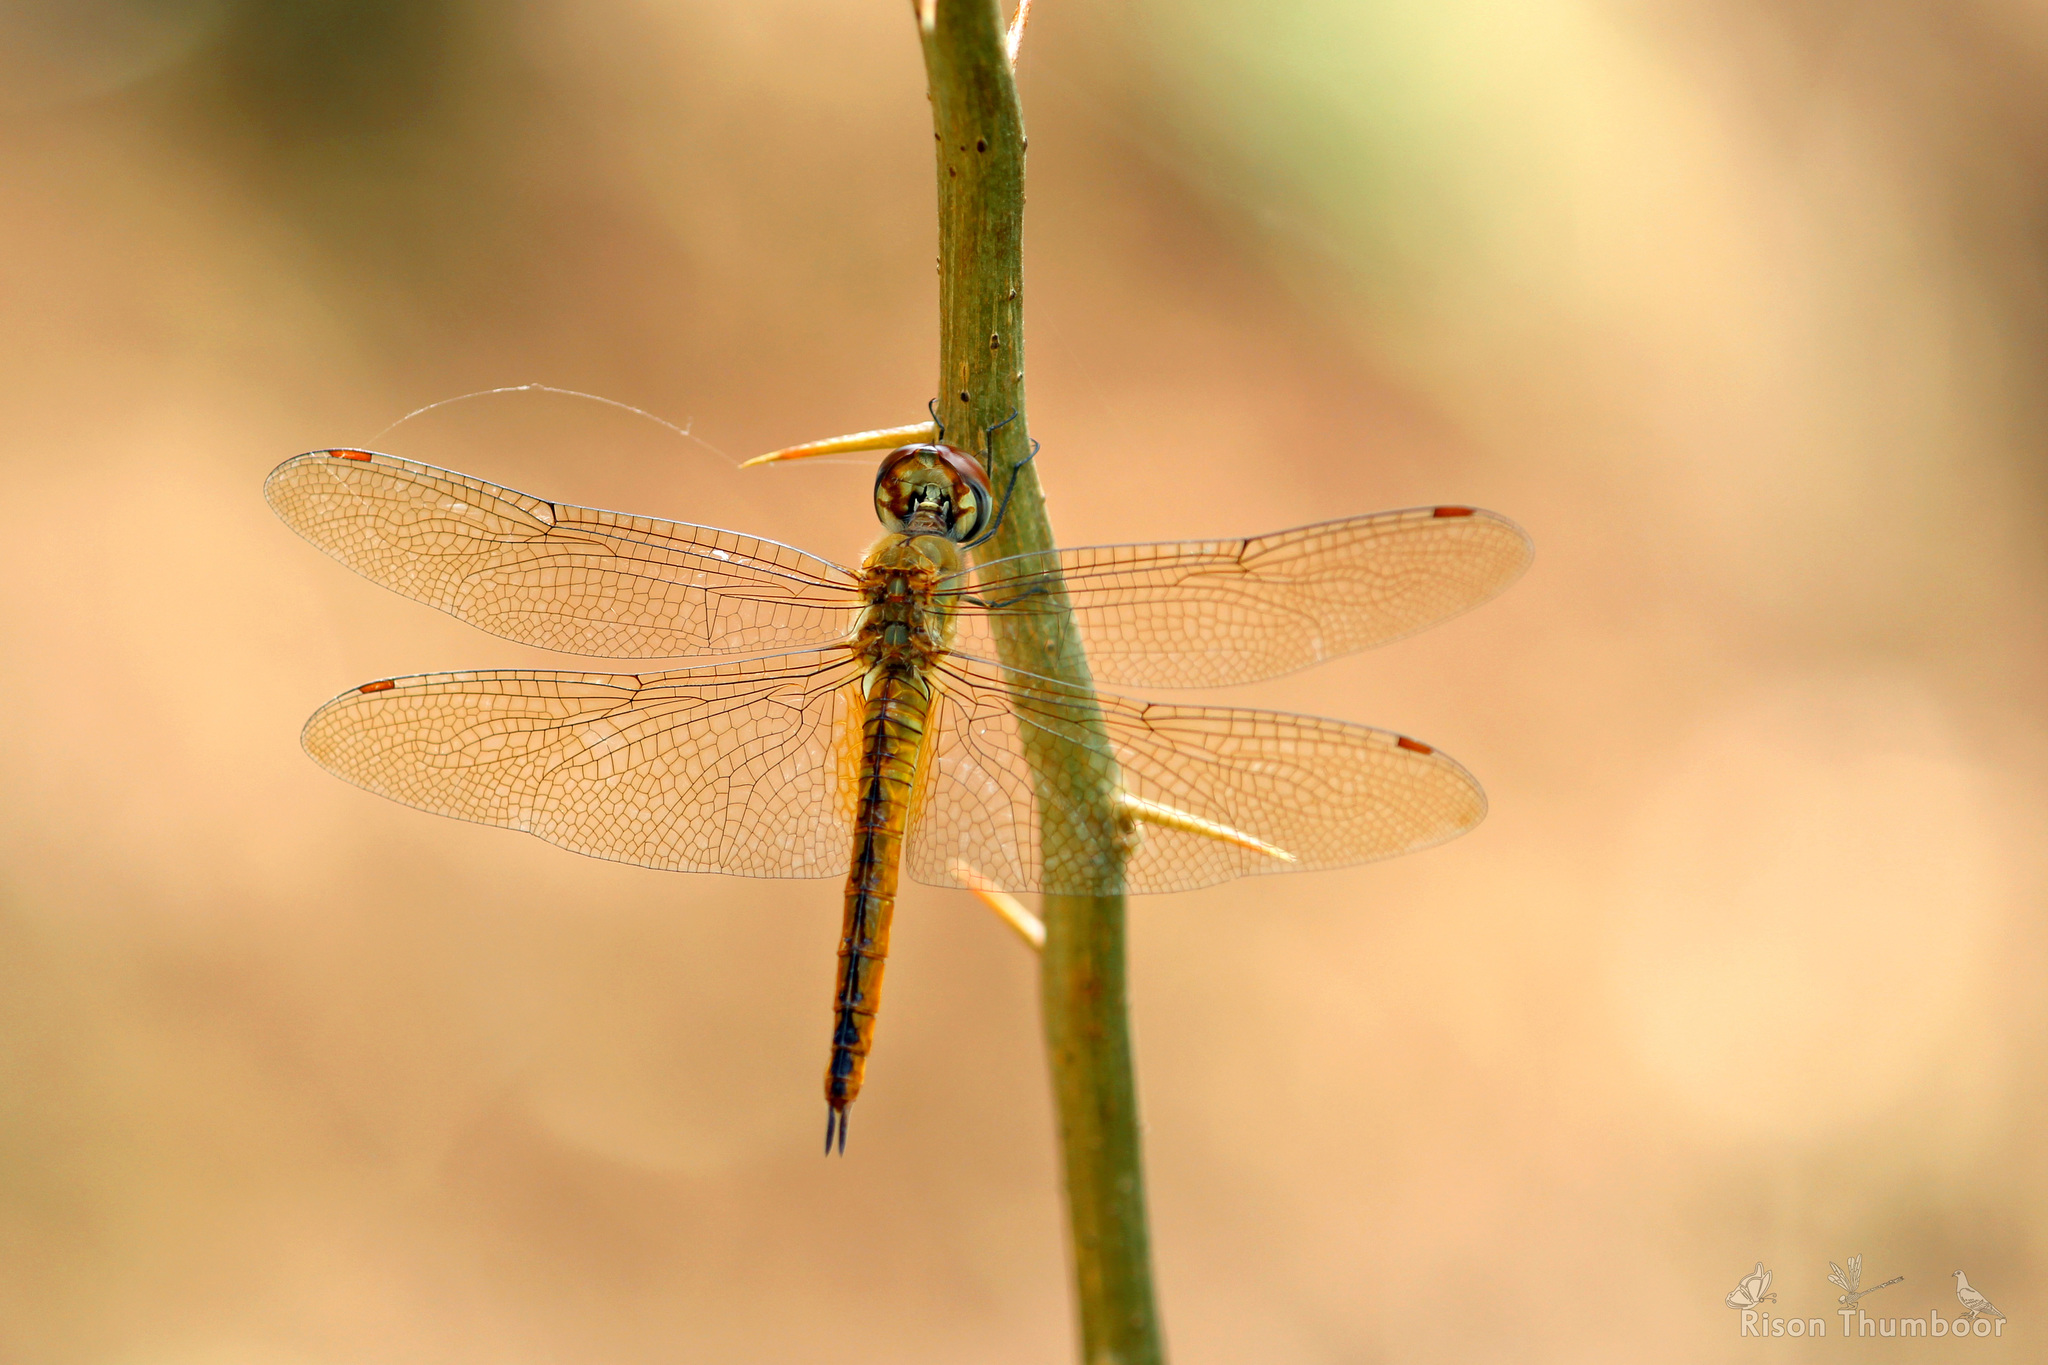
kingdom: Animalia
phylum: Arthropoda
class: Insecta
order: Odonata
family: Libellulidae
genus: Pantala
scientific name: Pantala flavescens
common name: Wandering glider
